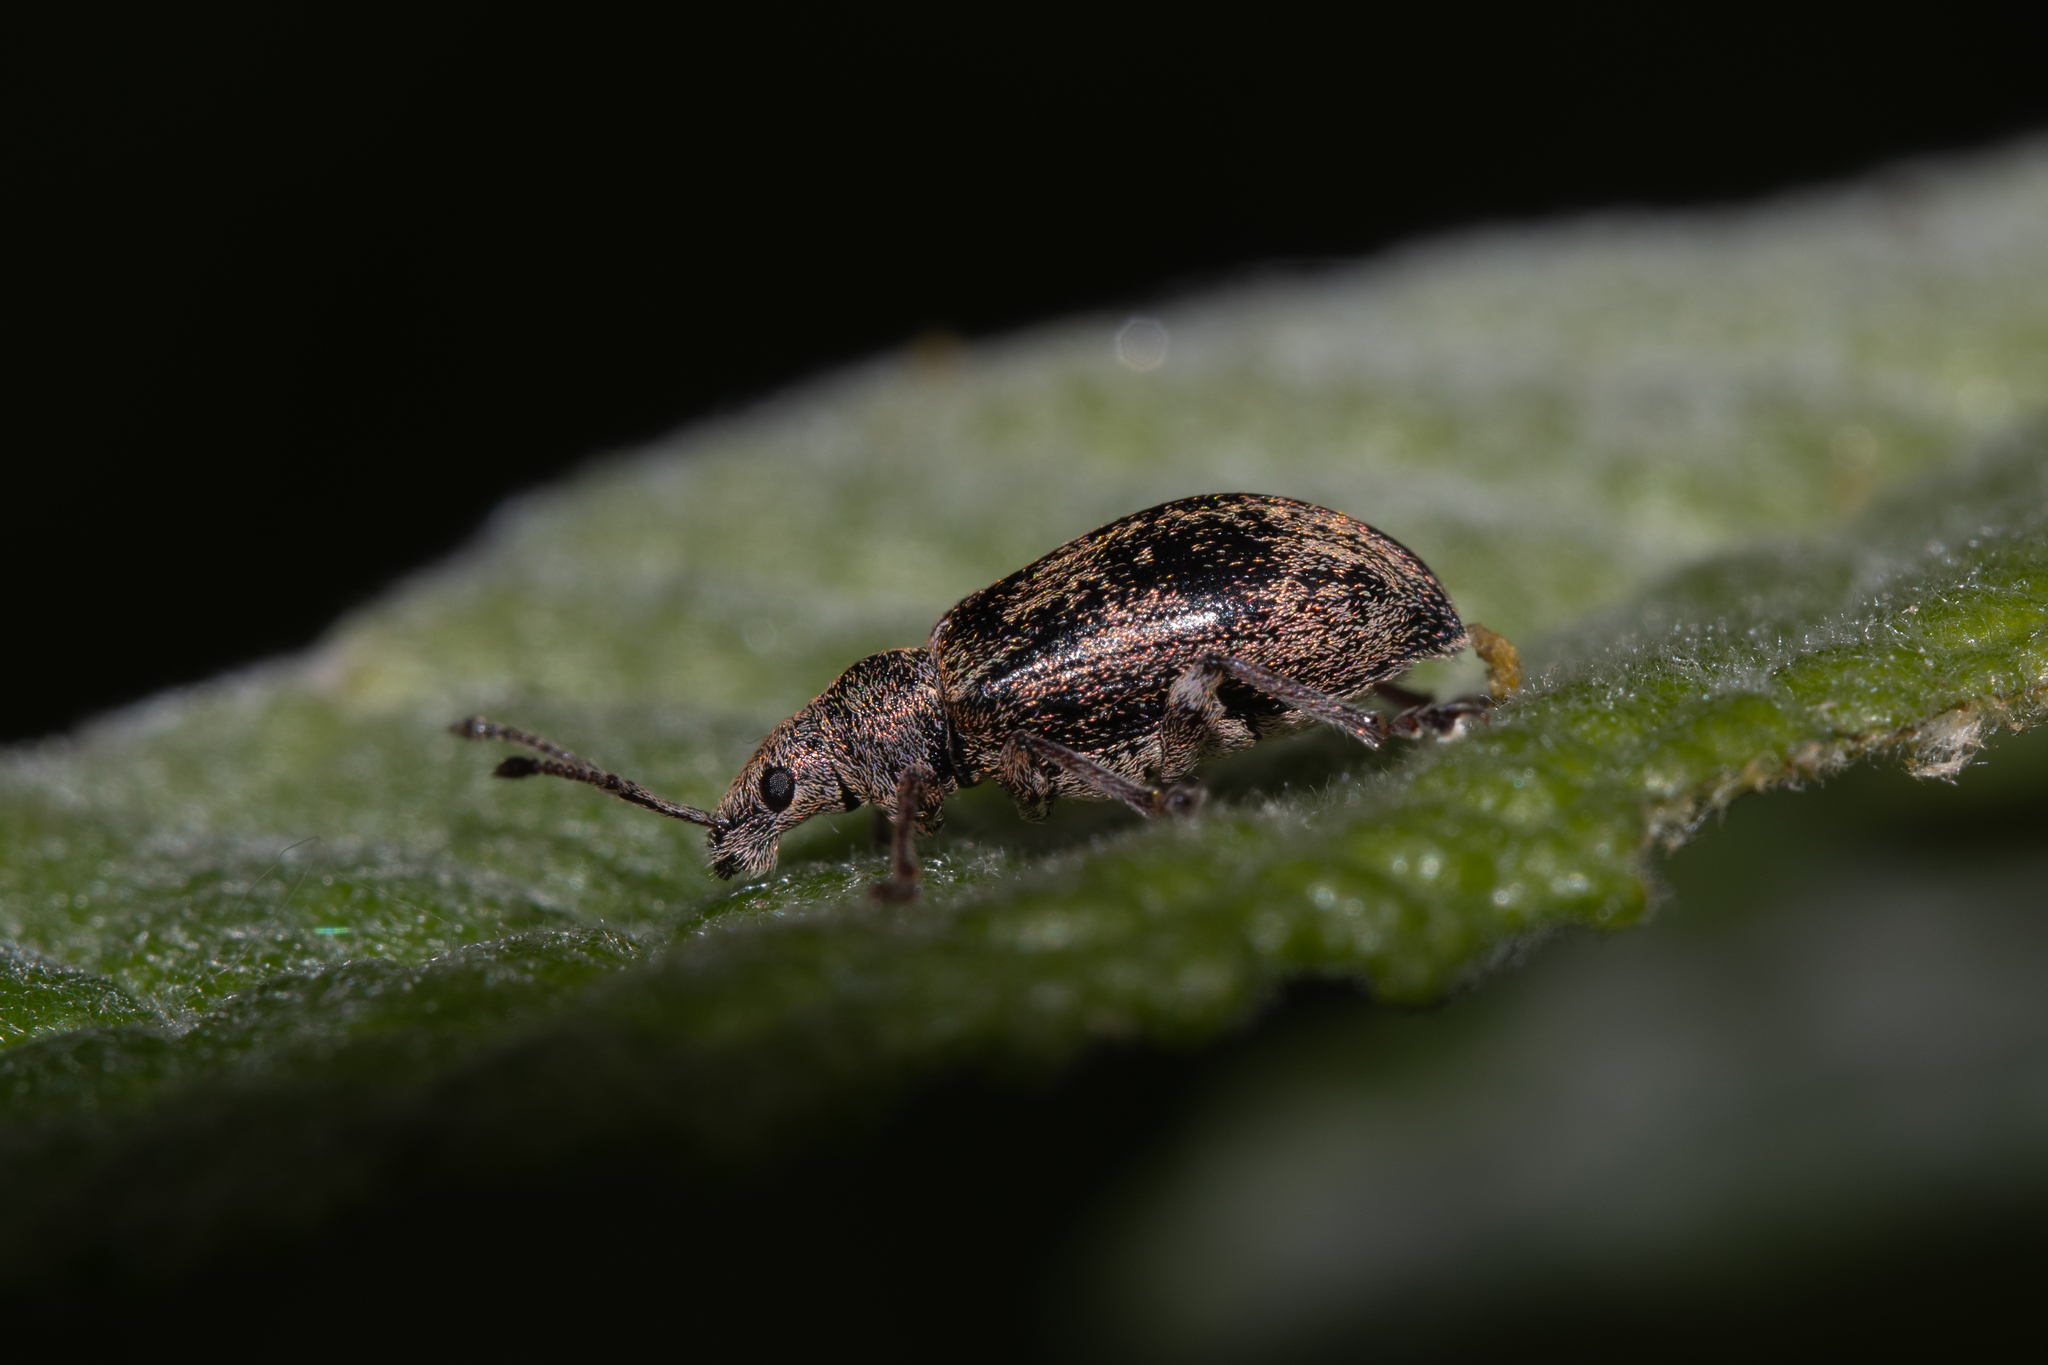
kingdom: Animalia
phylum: Arthropoda
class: Insecta
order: Coleoptera
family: Curculionidae
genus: Phyllobius
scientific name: Phyllobius pyri
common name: Common leaf weevil
